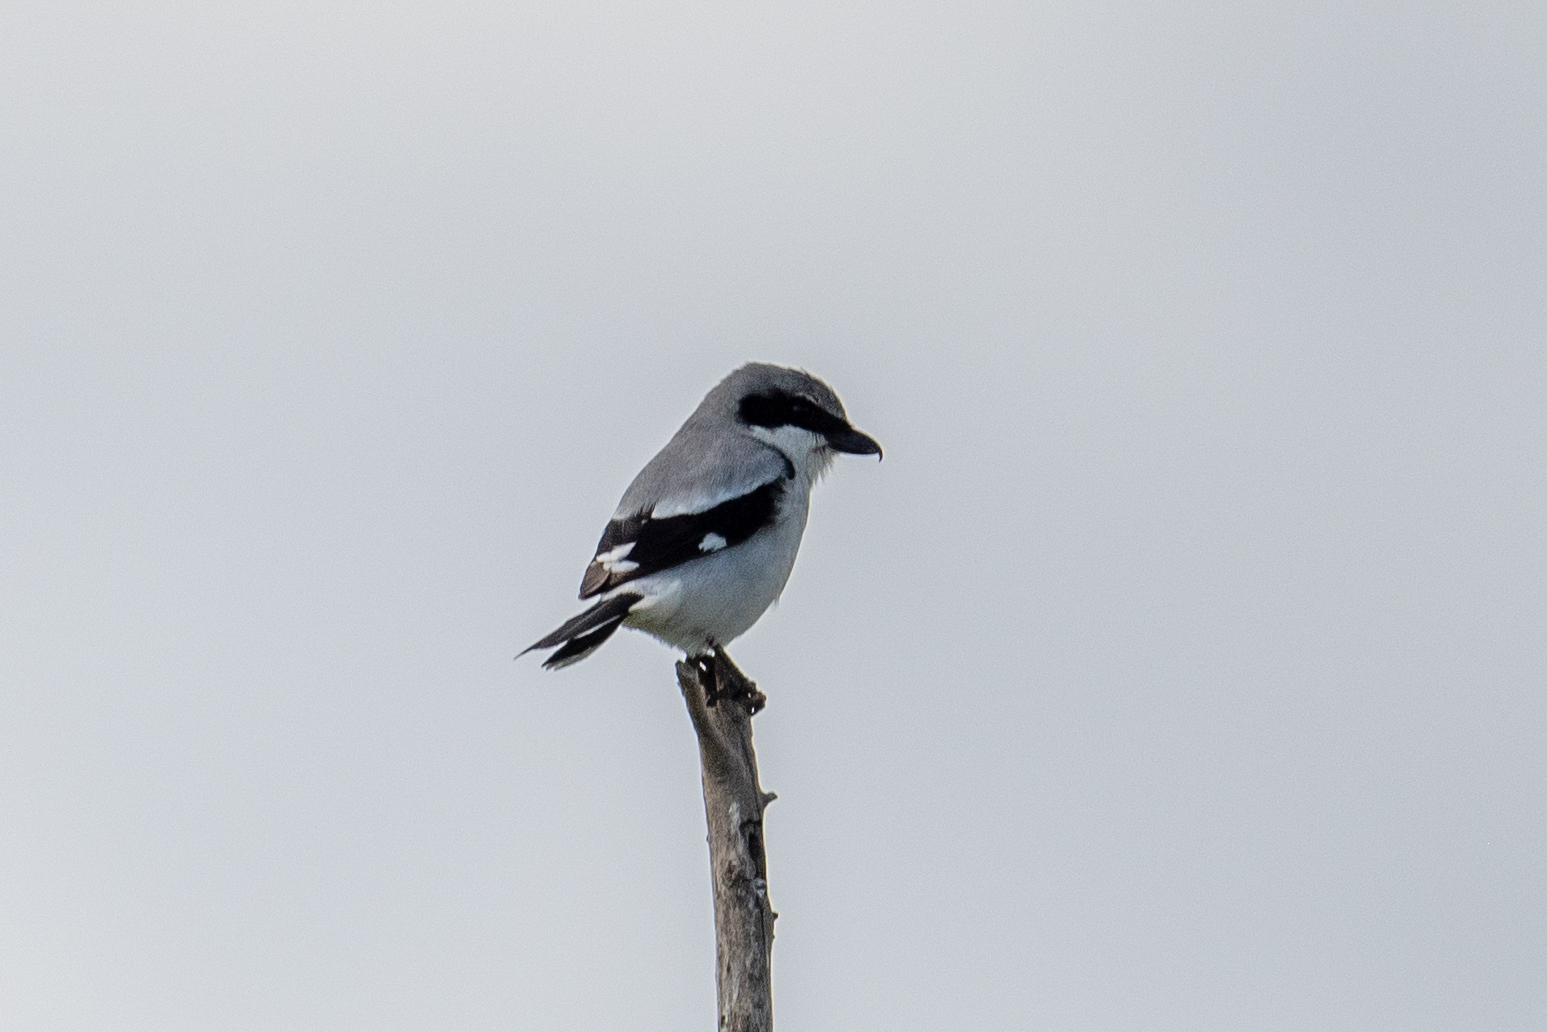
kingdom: Animalia
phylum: Chordata
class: Aves
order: Passeriformes
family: Laniidae
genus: Lanius
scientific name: Lanius ludovicianus
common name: Loggerhead shrike
